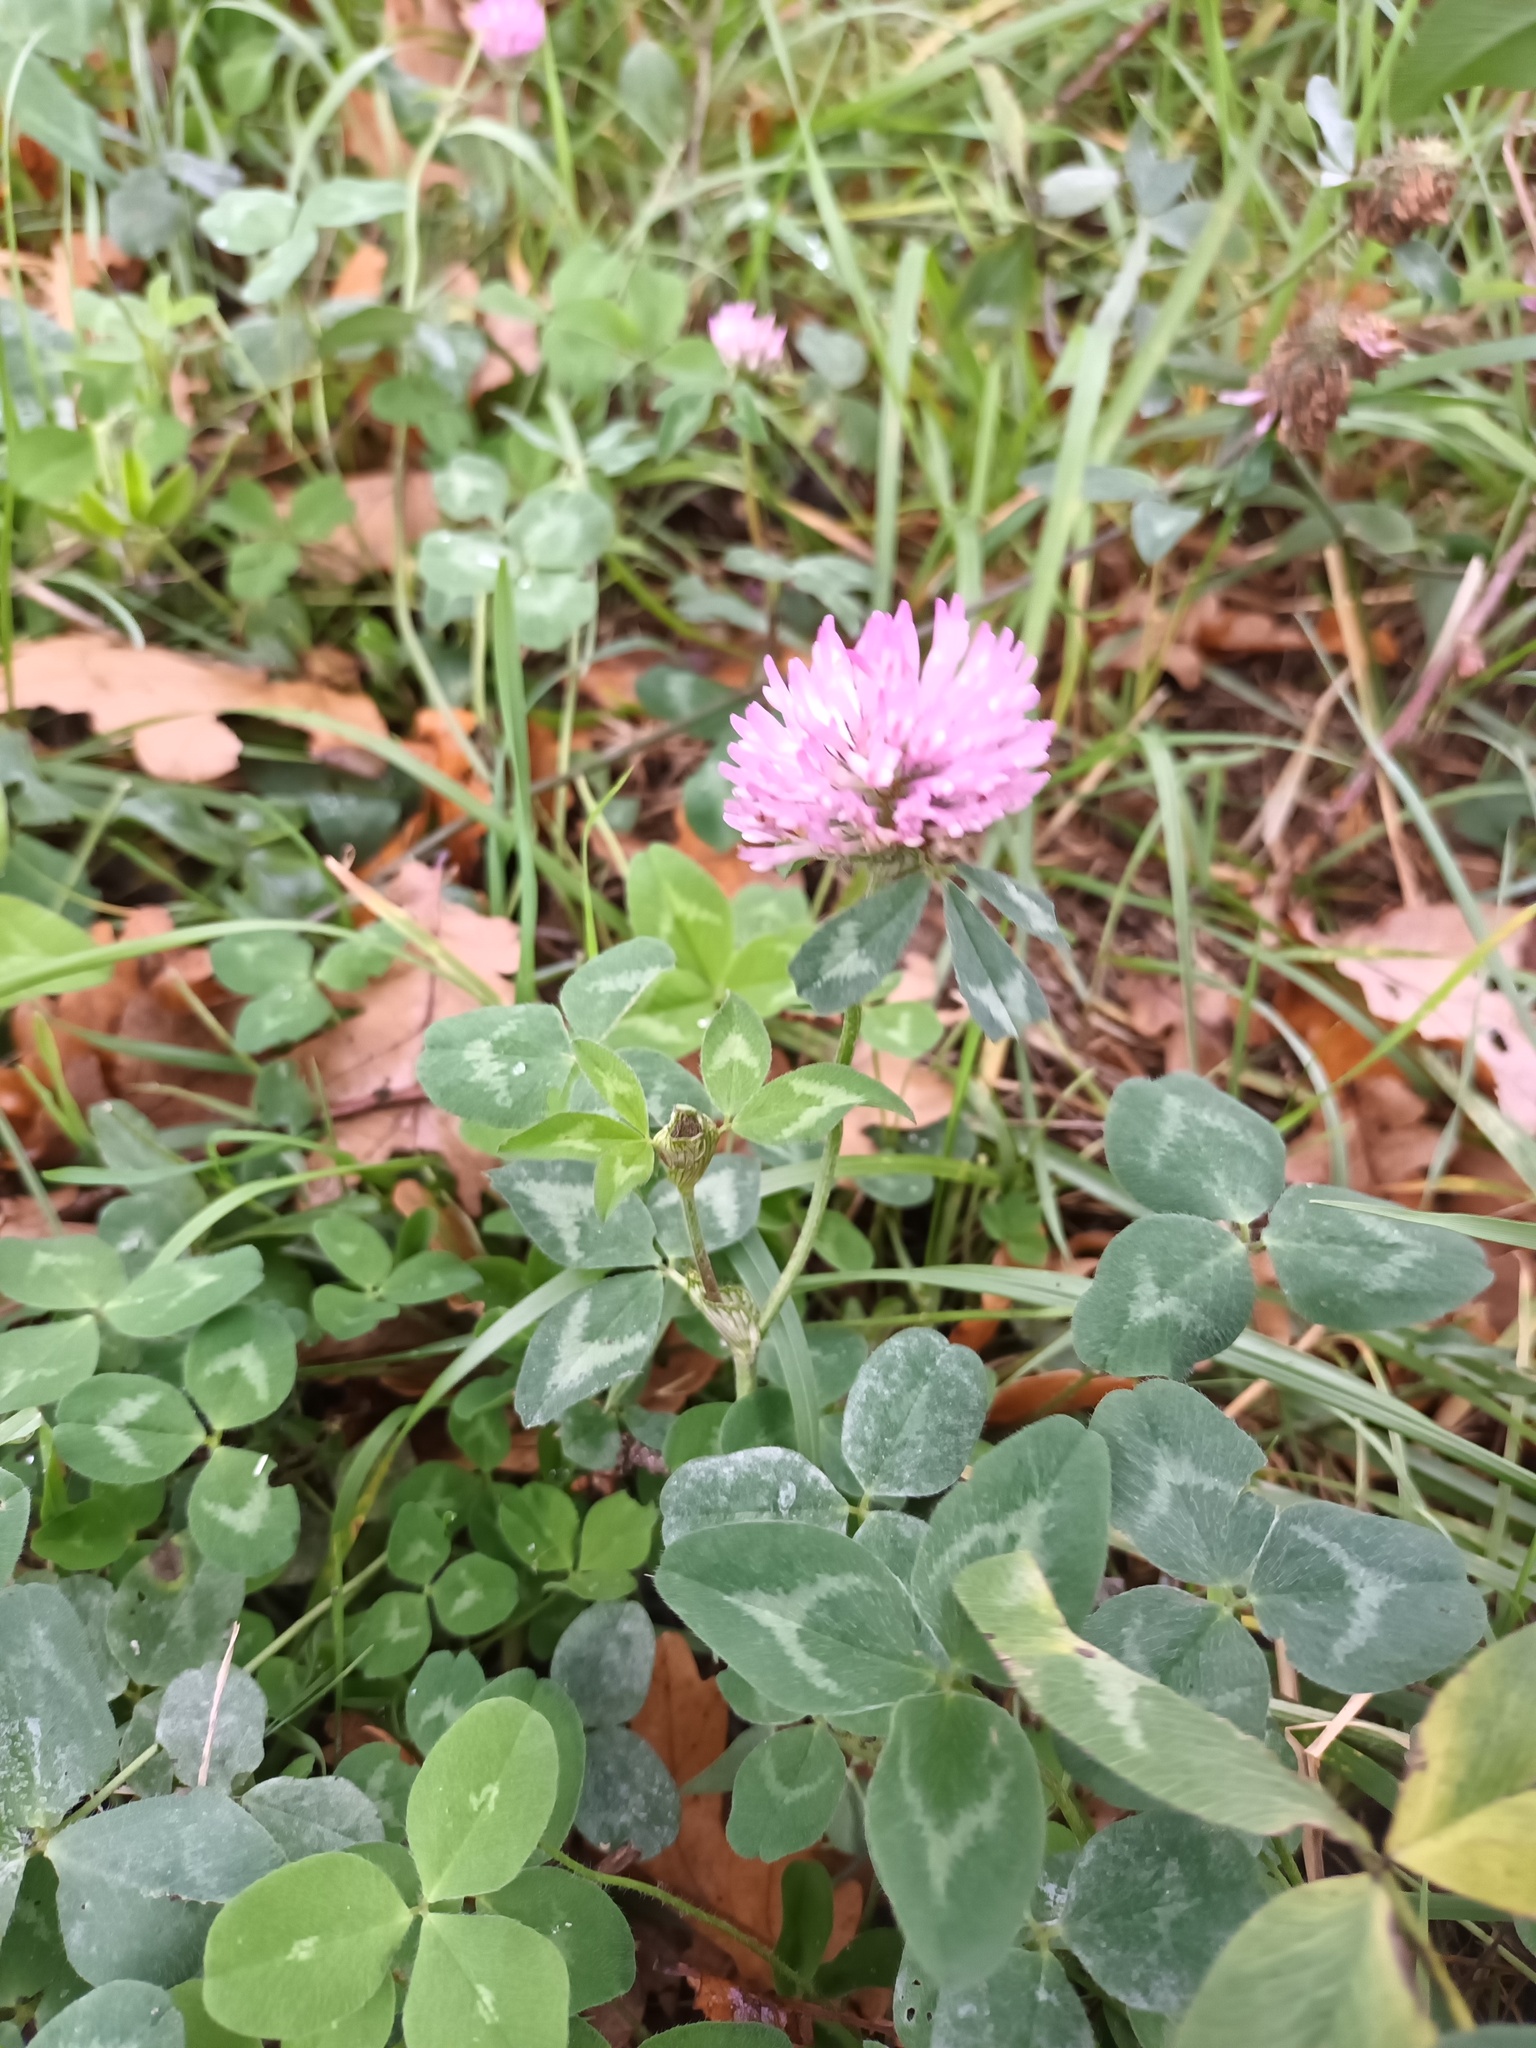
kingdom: Plantae
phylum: Tracheophyta
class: Magnoliopsida
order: Fabales
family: Fabaceae
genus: Trifolium
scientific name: Trifolium pratense
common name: Red clover
